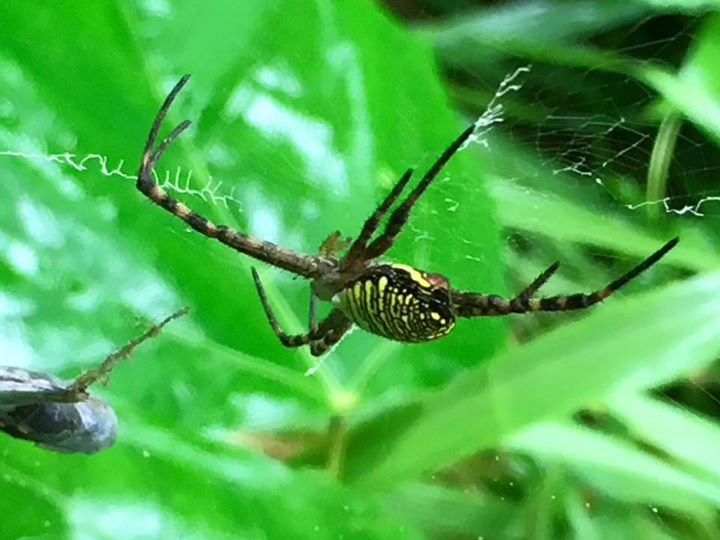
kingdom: Animalia
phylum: Arthropoda
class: Arachnida
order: Araneae
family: Araneidae
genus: Argiope
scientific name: Argiope aemula
